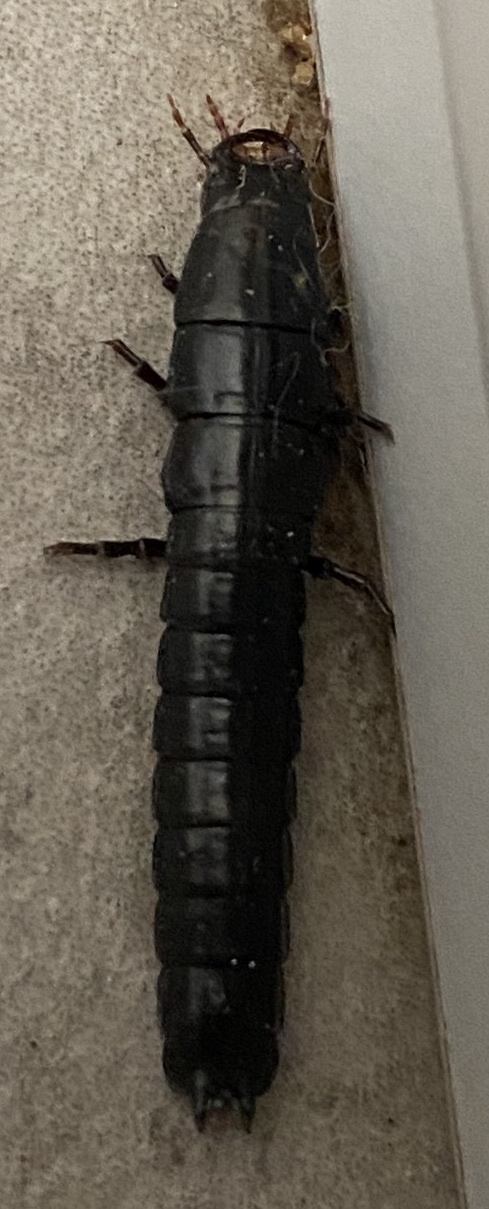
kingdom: Animalia
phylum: Arthropoda
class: Insecta
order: Coleoptera
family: Carabidae
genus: Carabus
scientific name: Carabus
